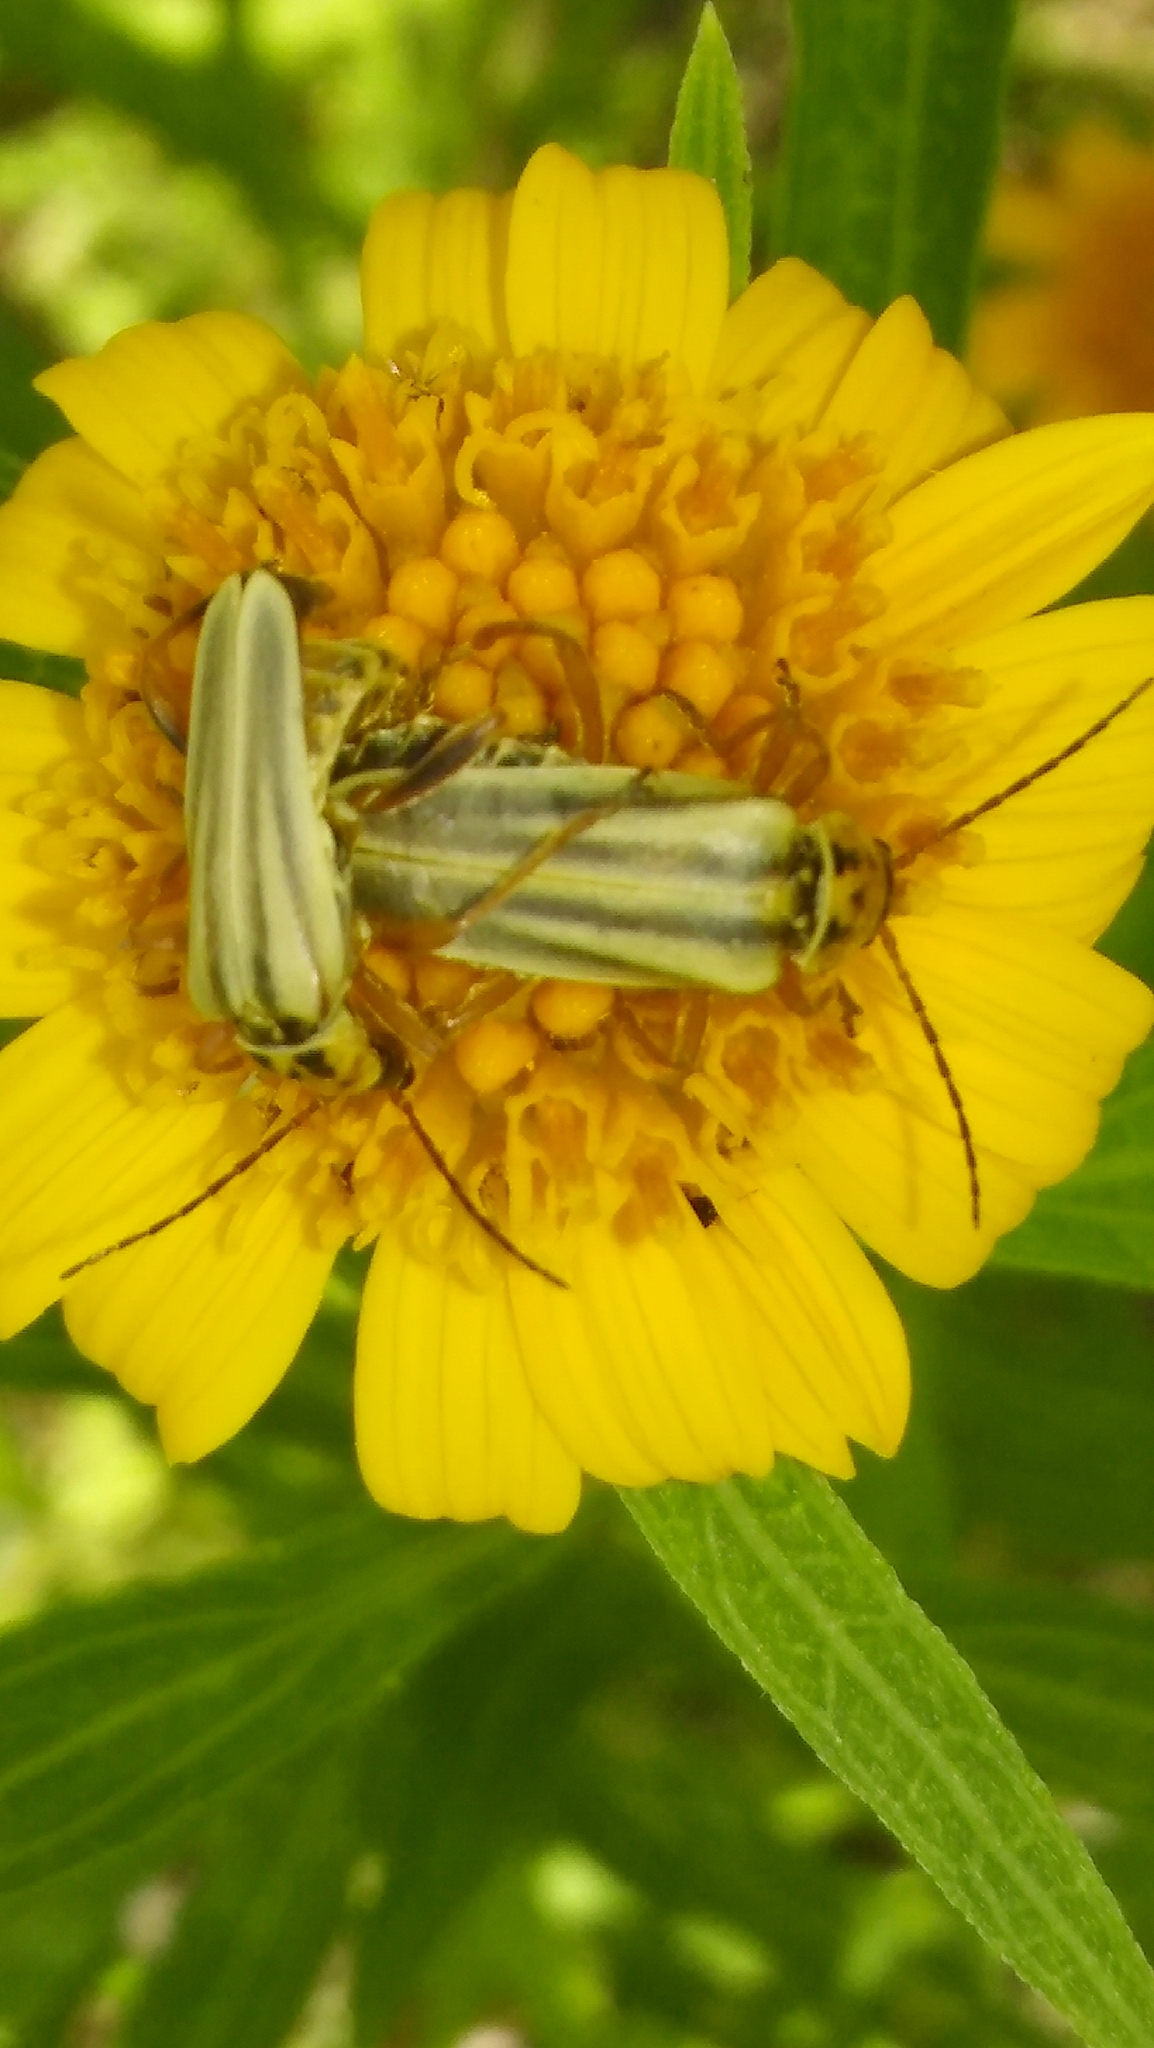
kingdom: Animalia
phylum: Arthropoda
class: Insecta
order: Coleoptera
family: Cantharidae
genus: Chauliognathus
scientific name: Chauliognathus
